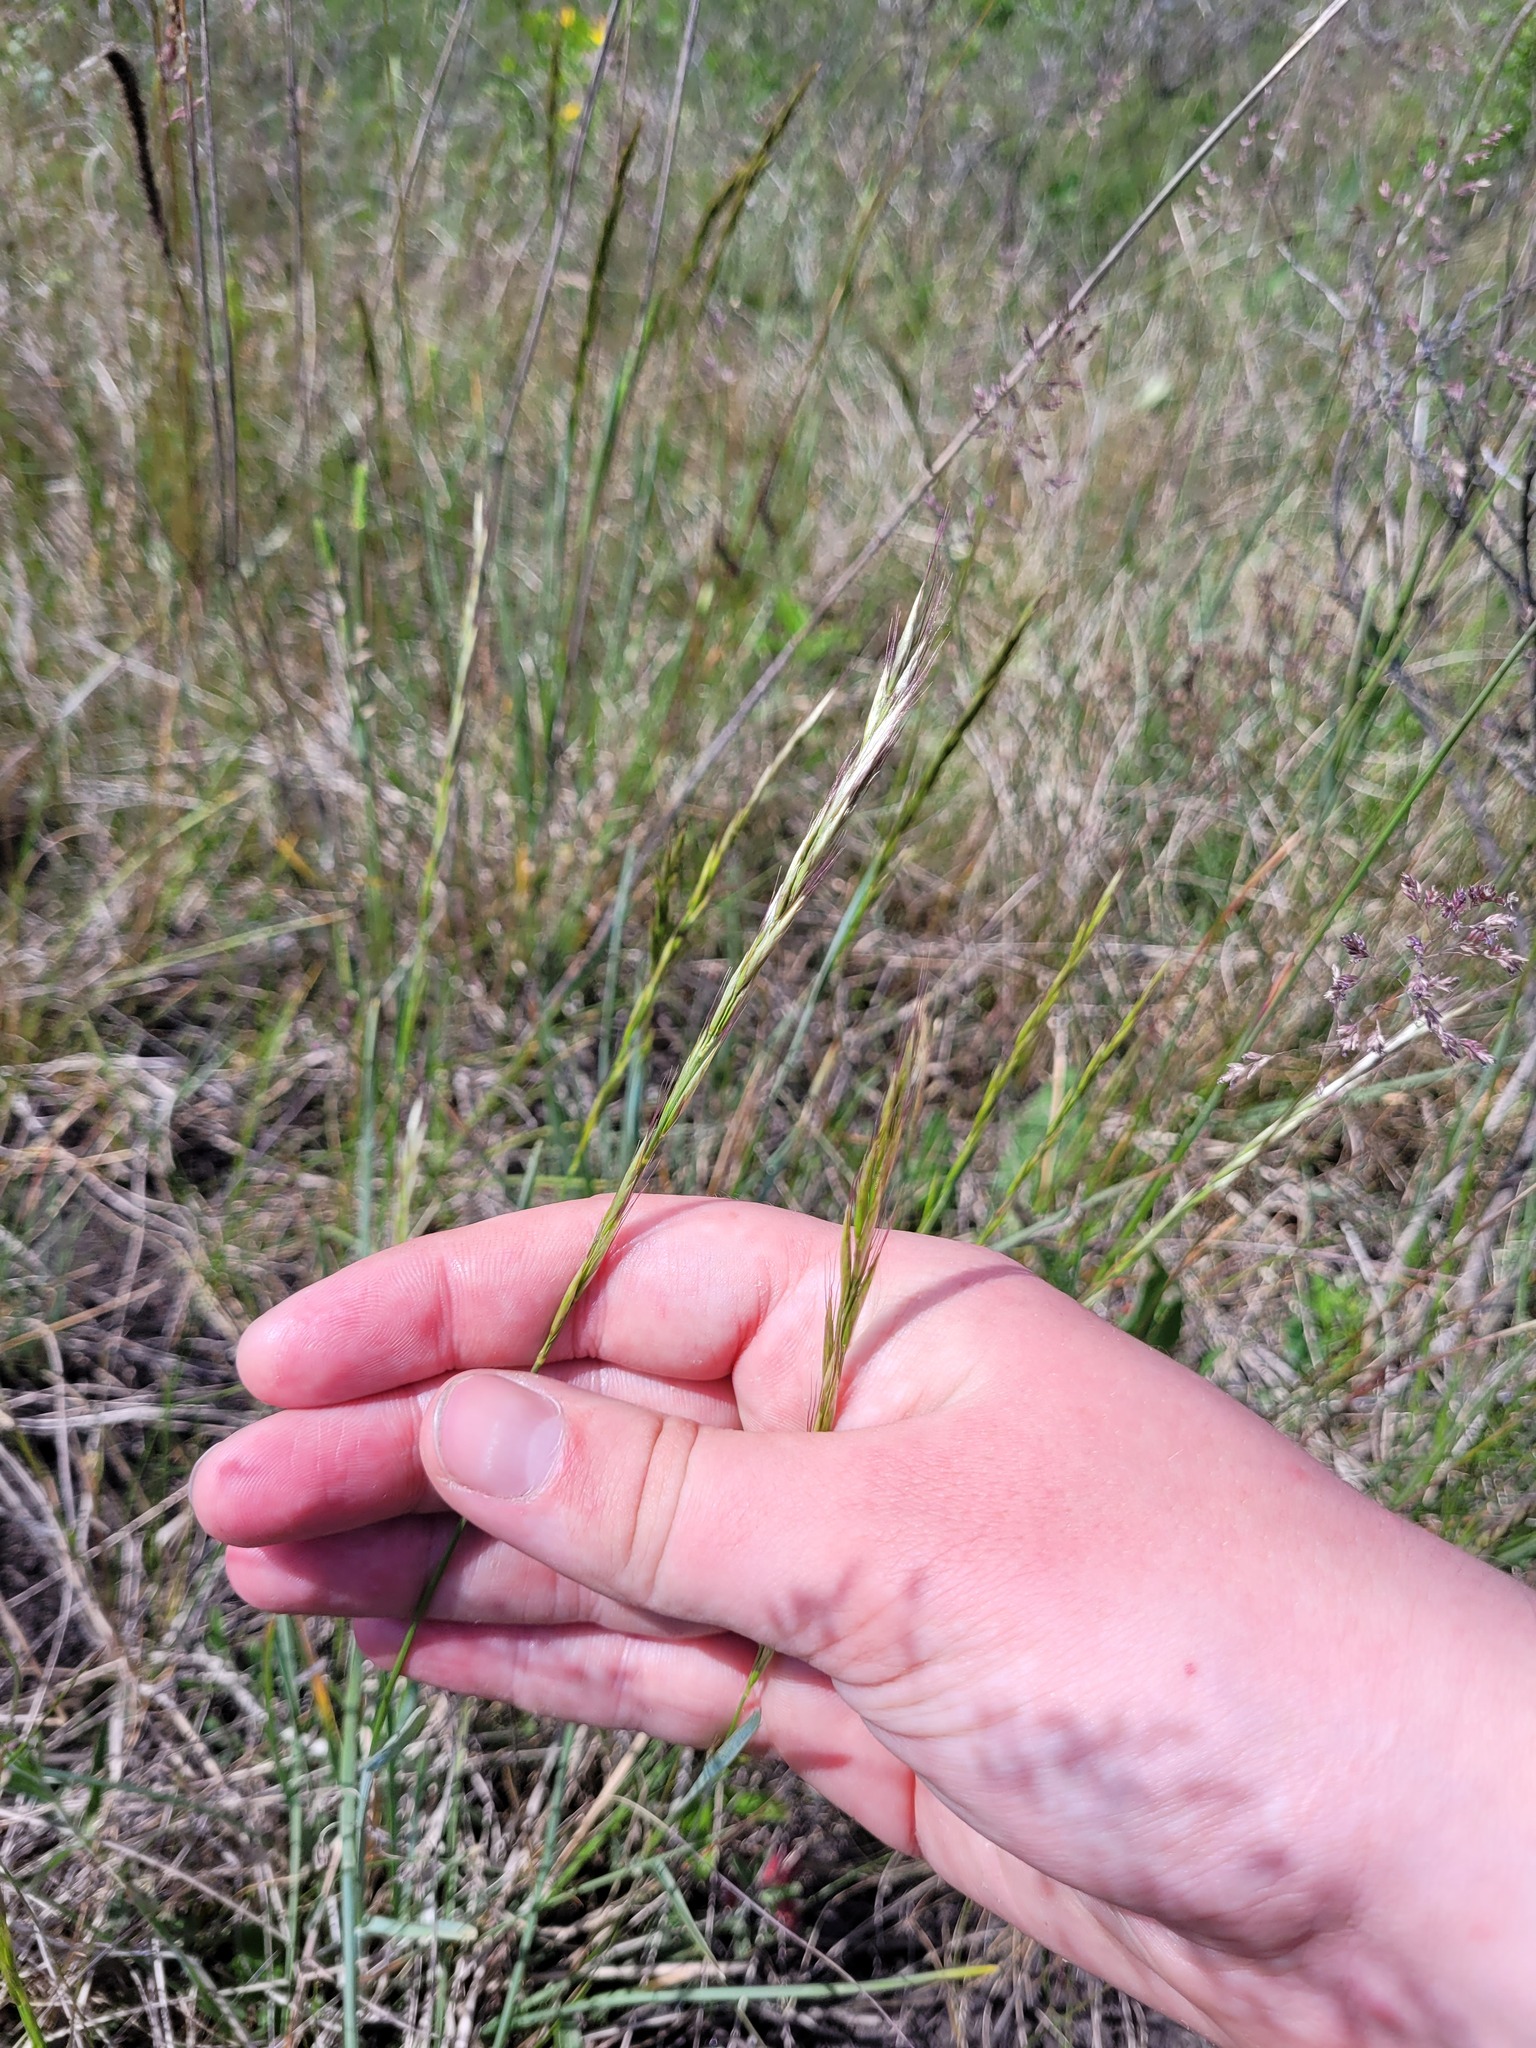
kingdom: Plantae
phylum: Tracheophyta
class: Liliopsida
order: Poales
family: Poaceae
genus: Helictochloa
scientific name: Helictochloa hookeri
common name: Hooker's alpine oatgrass
